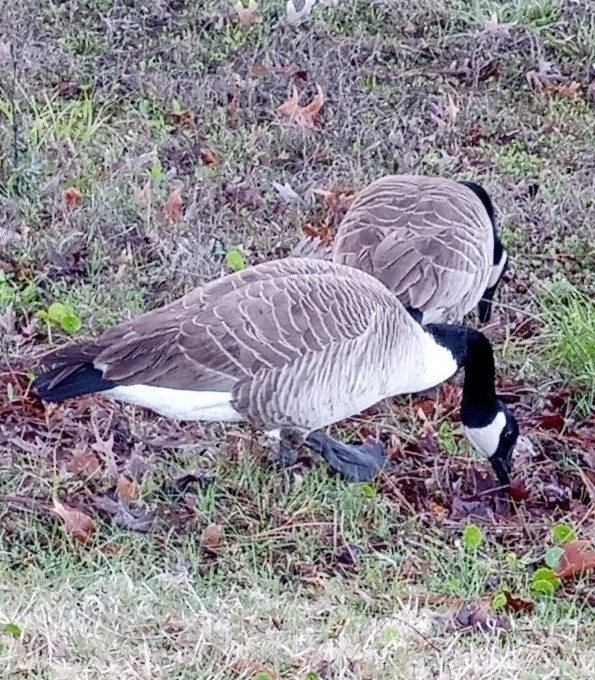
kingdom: Animalia
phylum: Chordata
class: Aves
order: Anseriformes
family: Anatidae
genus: Branta
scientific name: Branta canadensis
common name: Canada goose
